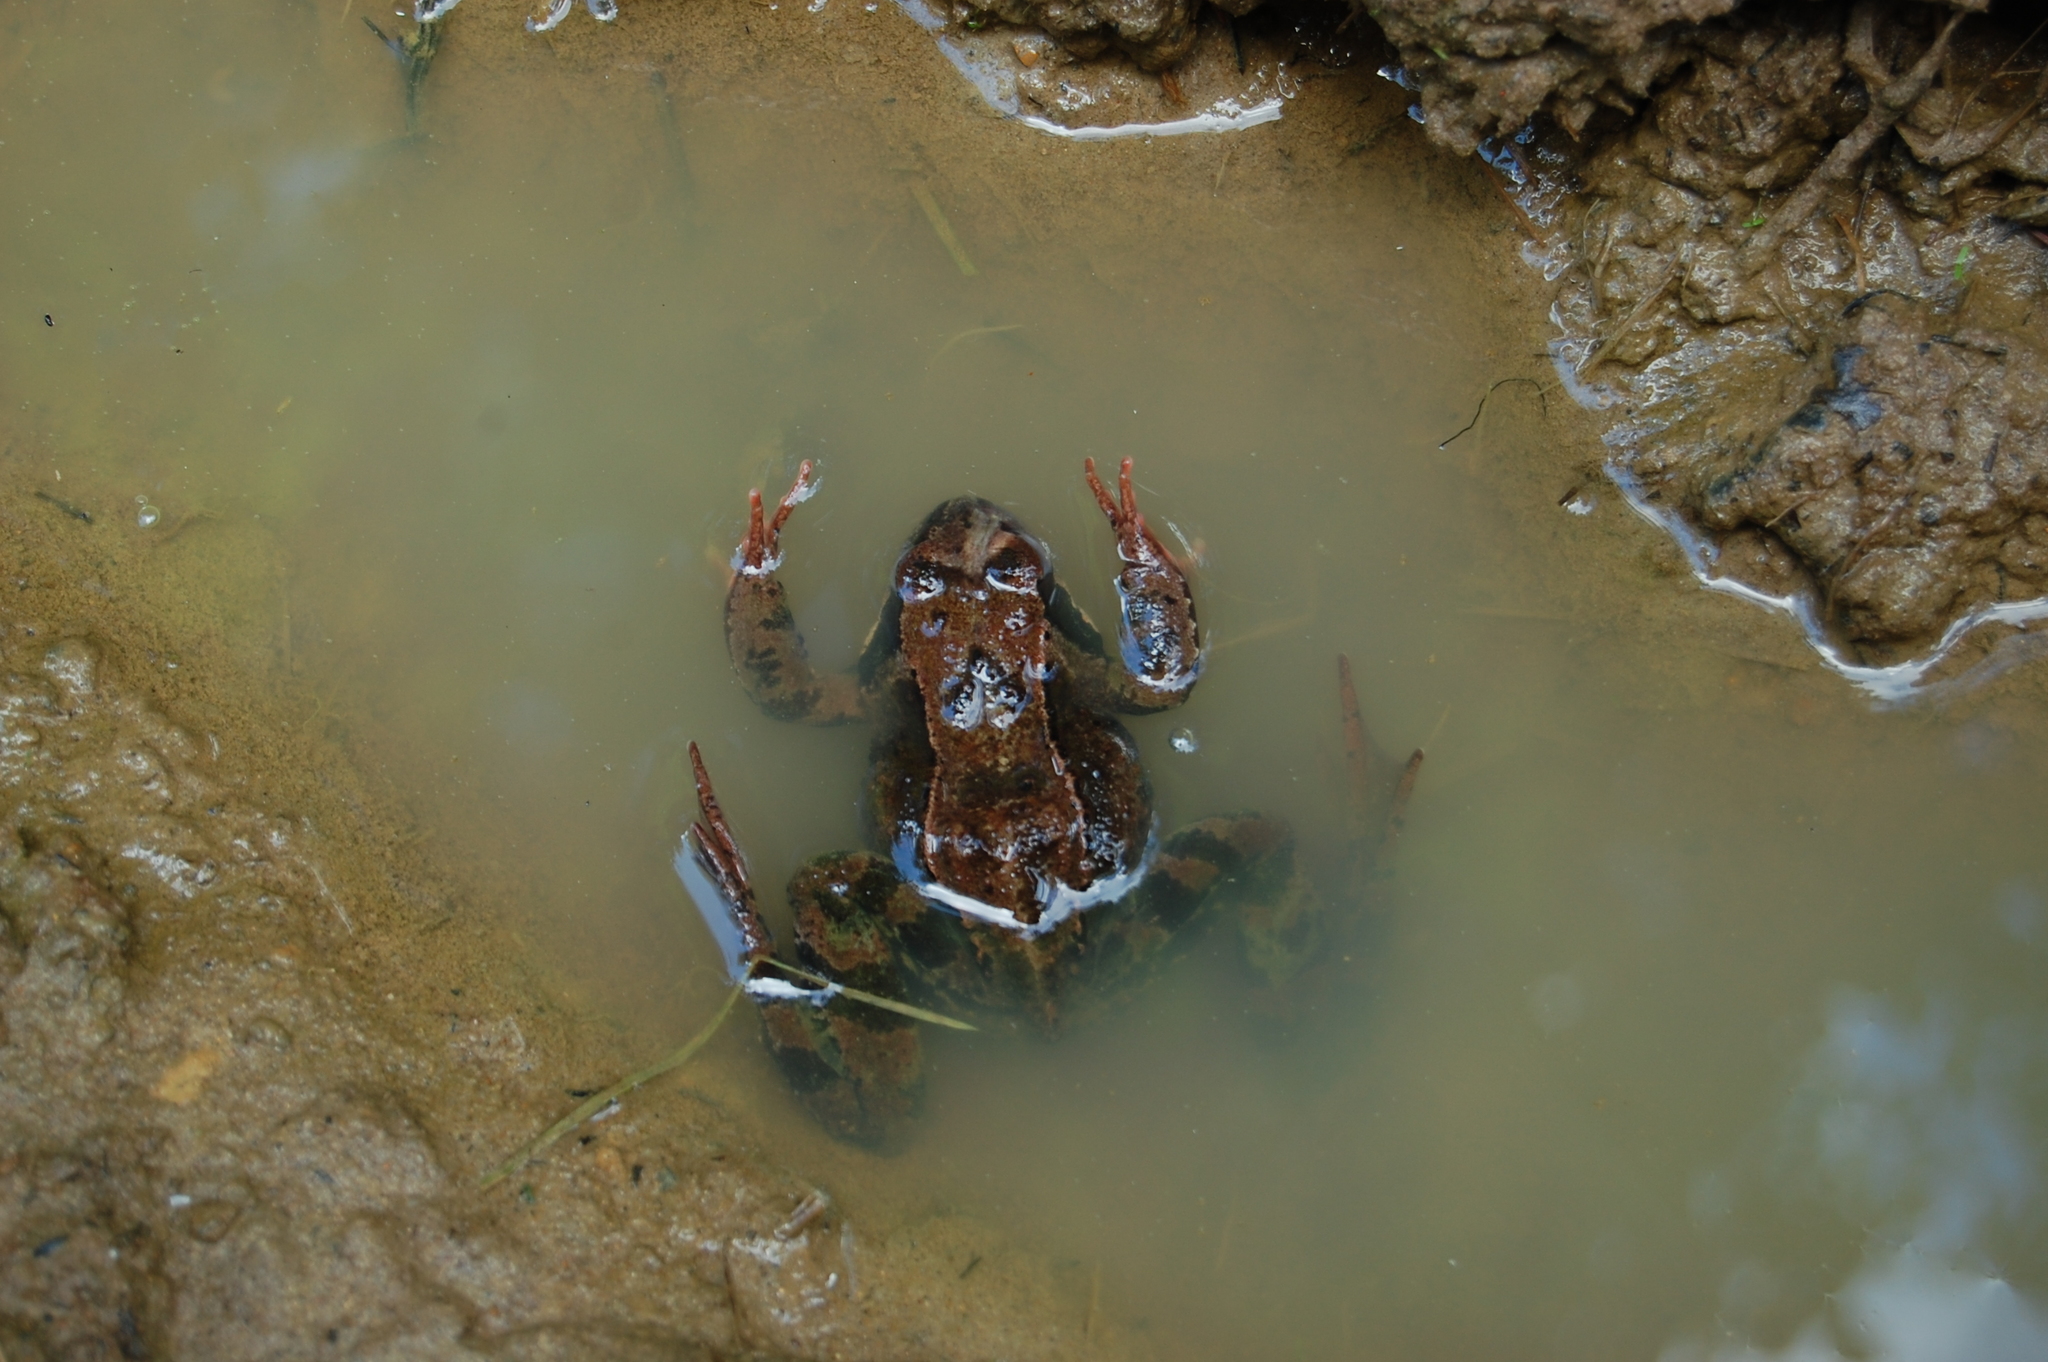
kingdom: Animalia
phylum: Chordata
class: Amphibia
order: Anura
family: Ranidae
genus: Rana
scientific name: Rana temporaria
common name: Common frog
